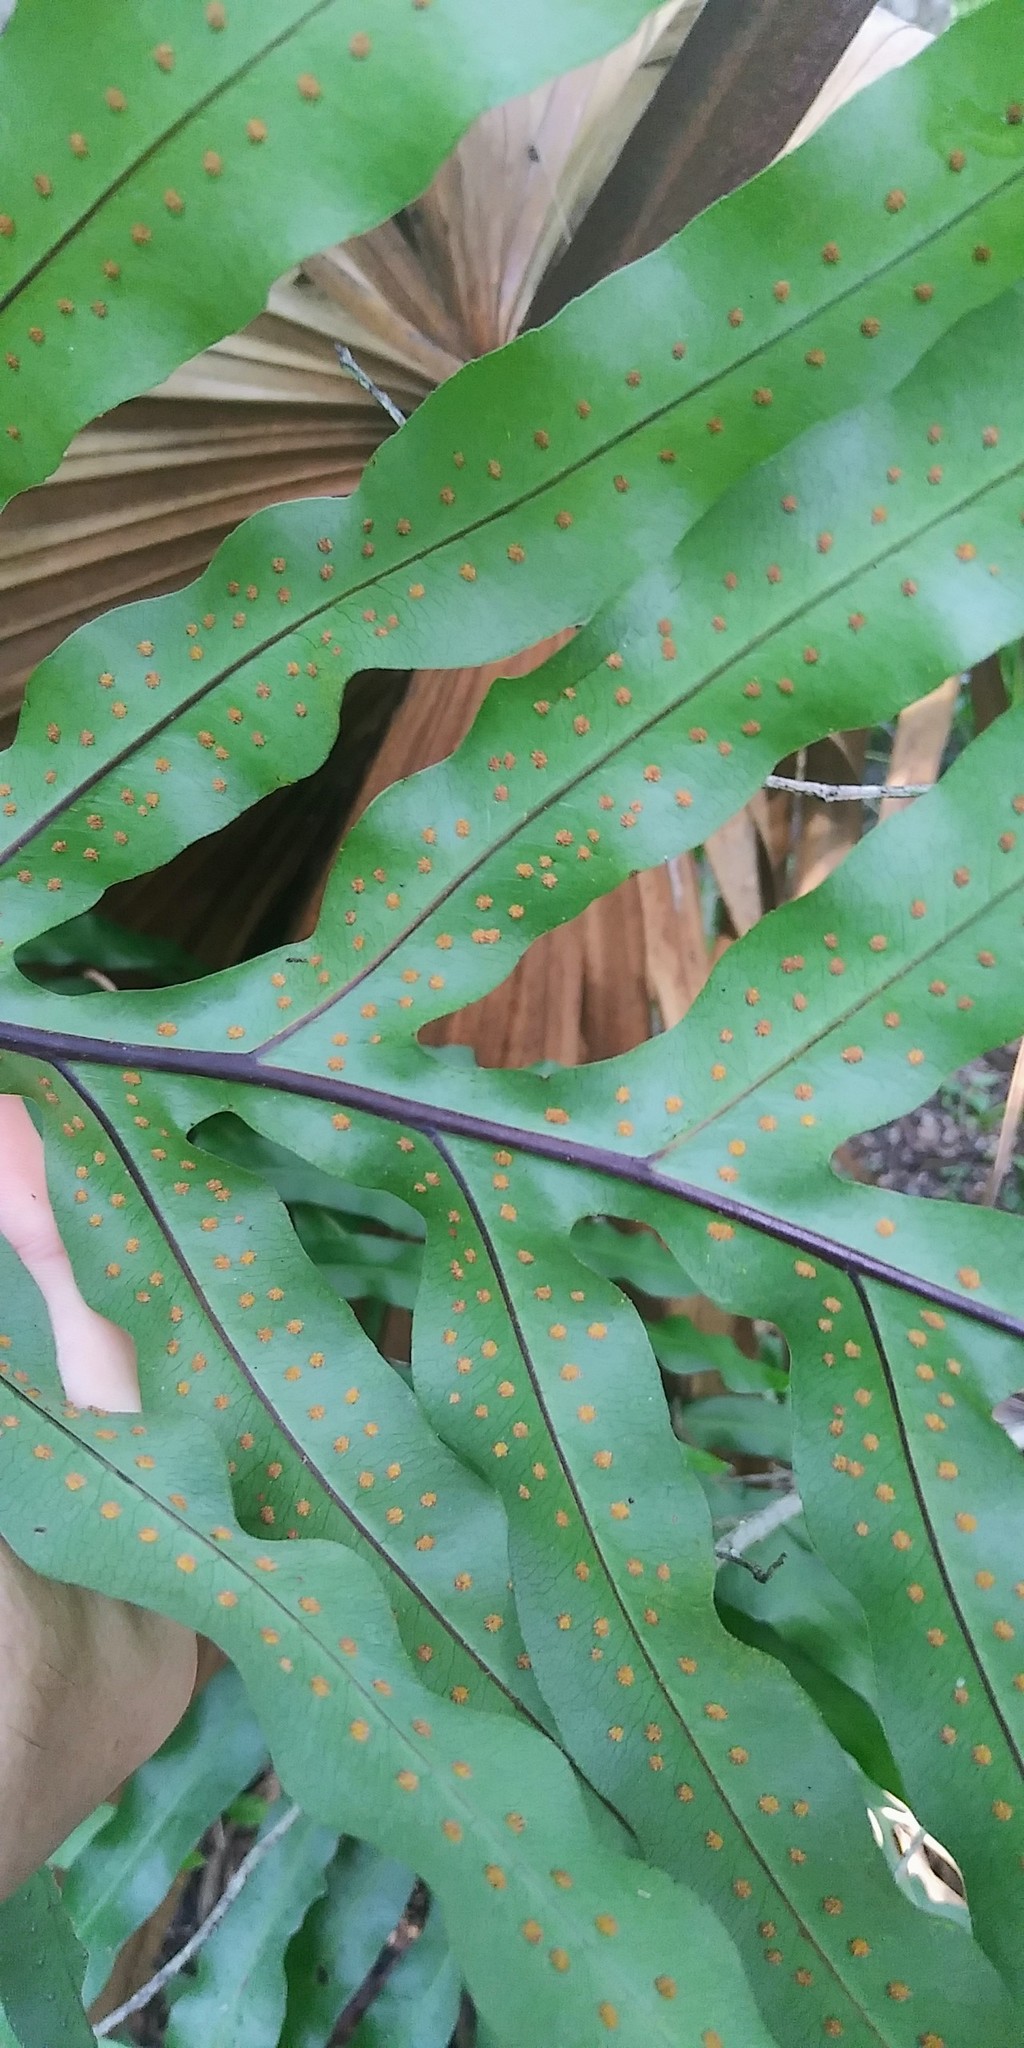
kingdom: Plantae
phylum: Tracheophyta
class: Polypodiopsida
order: Polypodiales
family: Polypodiaceae
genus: Phlebodium
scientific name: Phlebodium aureum
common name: Gold-foot fern
